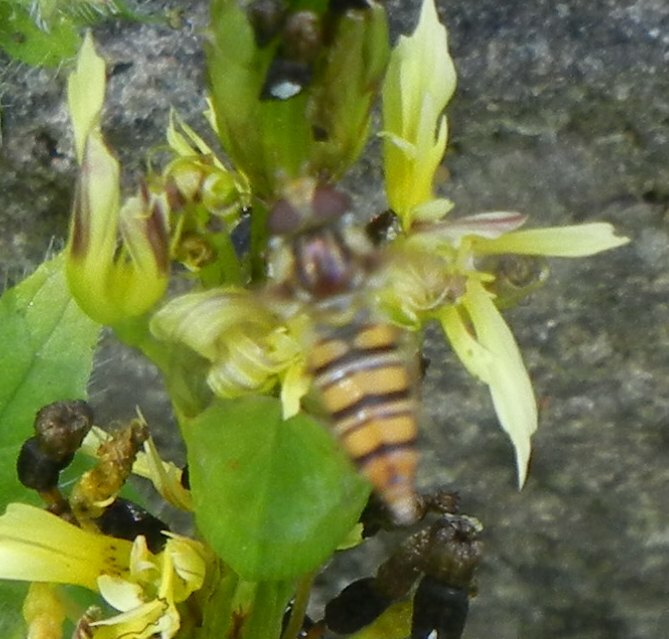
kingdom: Animalia
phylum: Arthropoda
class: Insecta
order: Diptera
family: Syrphidae
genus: Episyrphus
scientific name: Episyrphus balteatus
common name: Marmalade hoverfly
